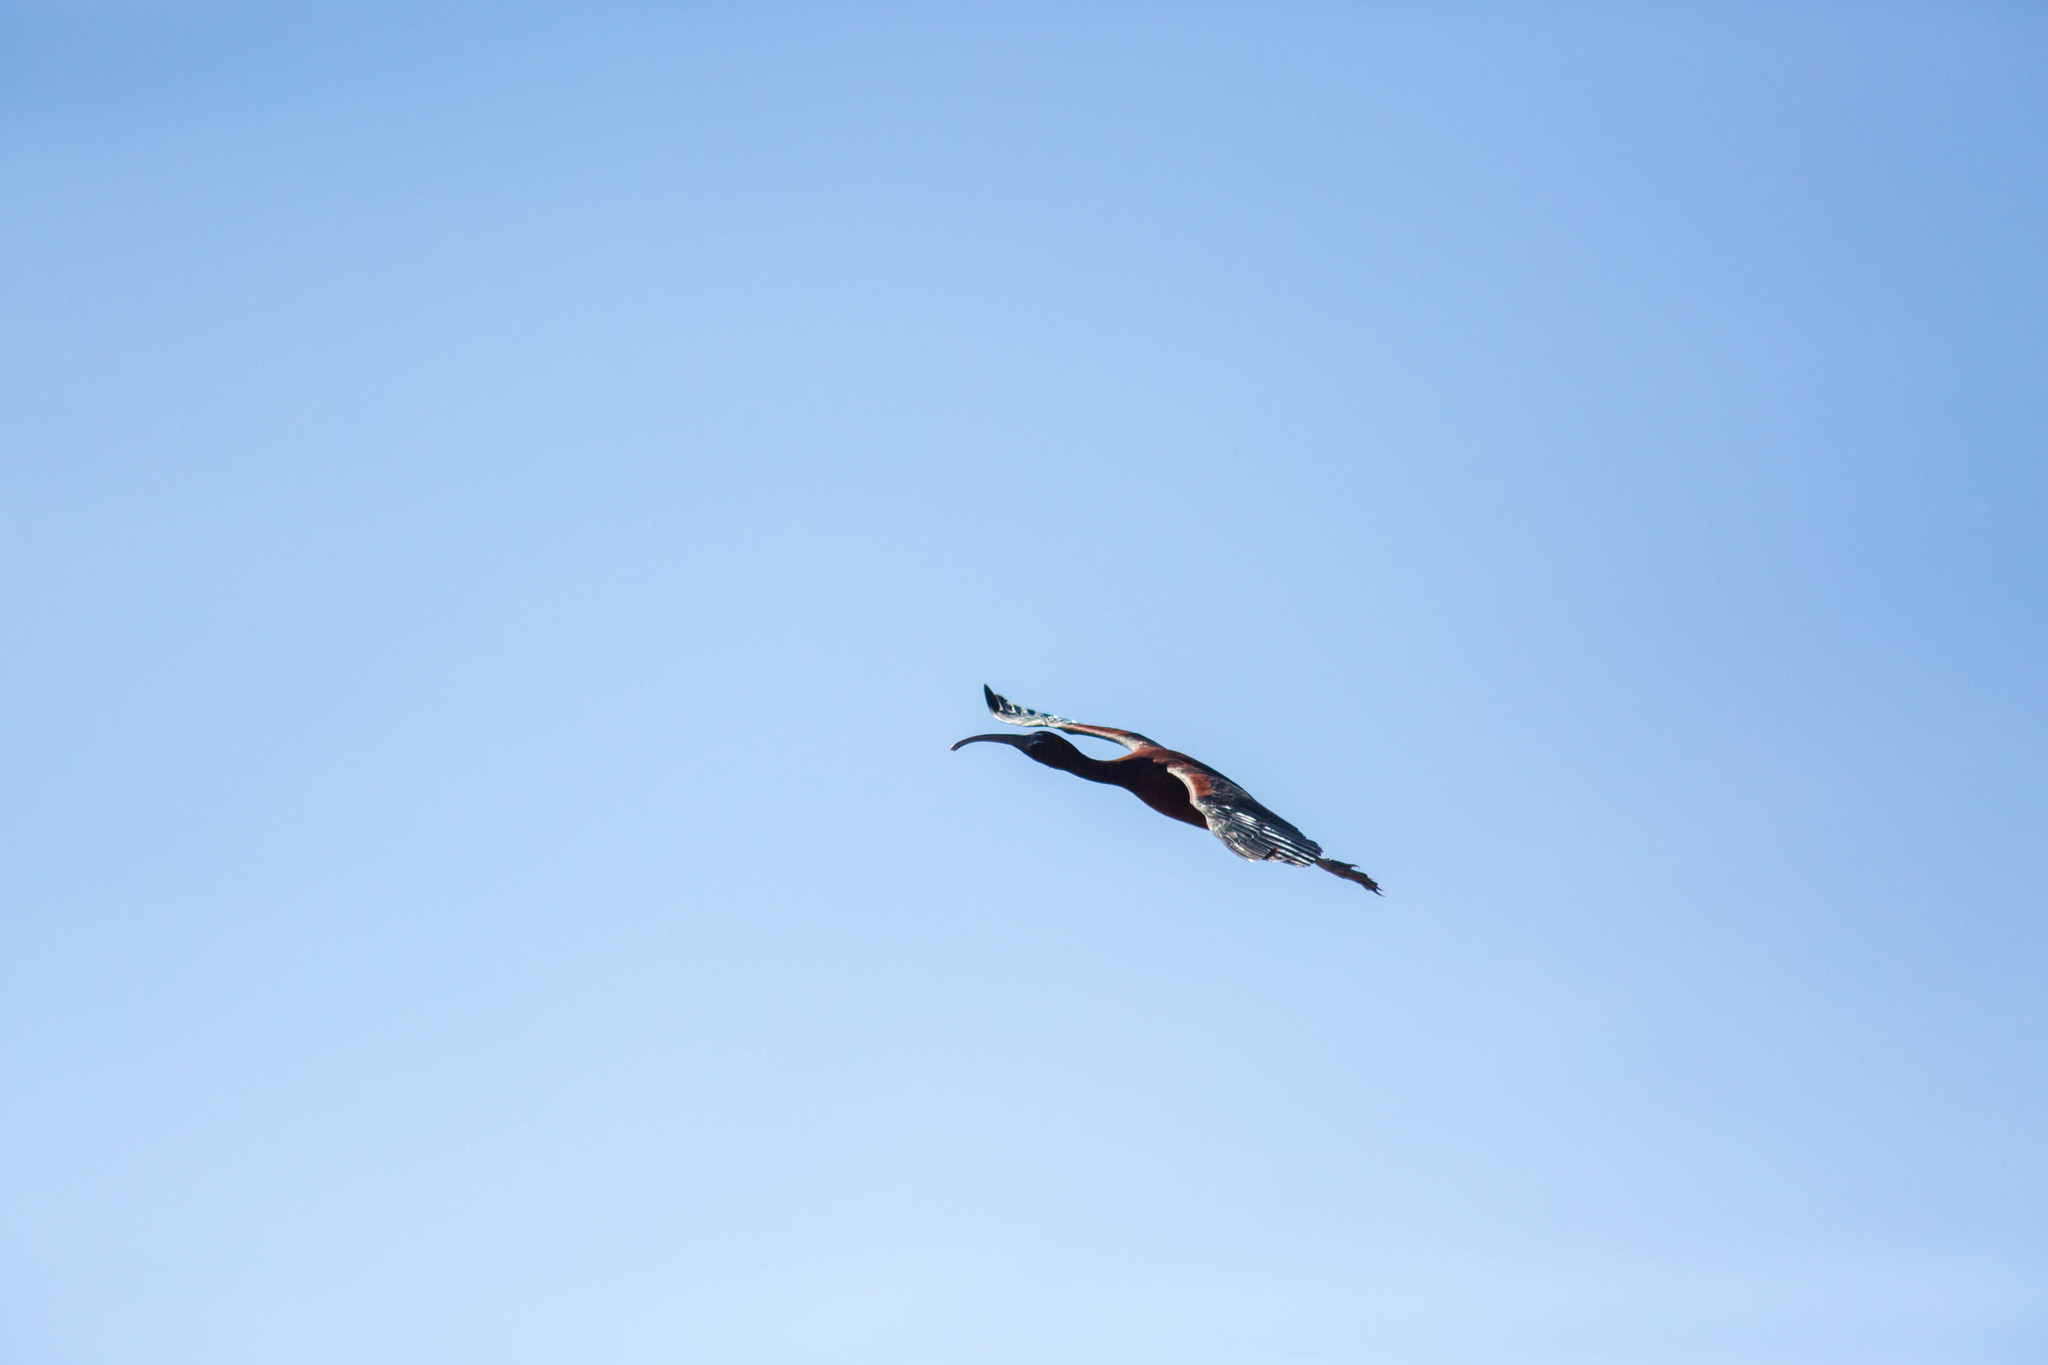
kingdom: Animalia
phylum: Chordata
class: Aves
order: Pelecaniformes
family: Threskiornithidae
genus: Plegadis
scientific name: Plegadis falcinellus
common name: Glossy ibis
